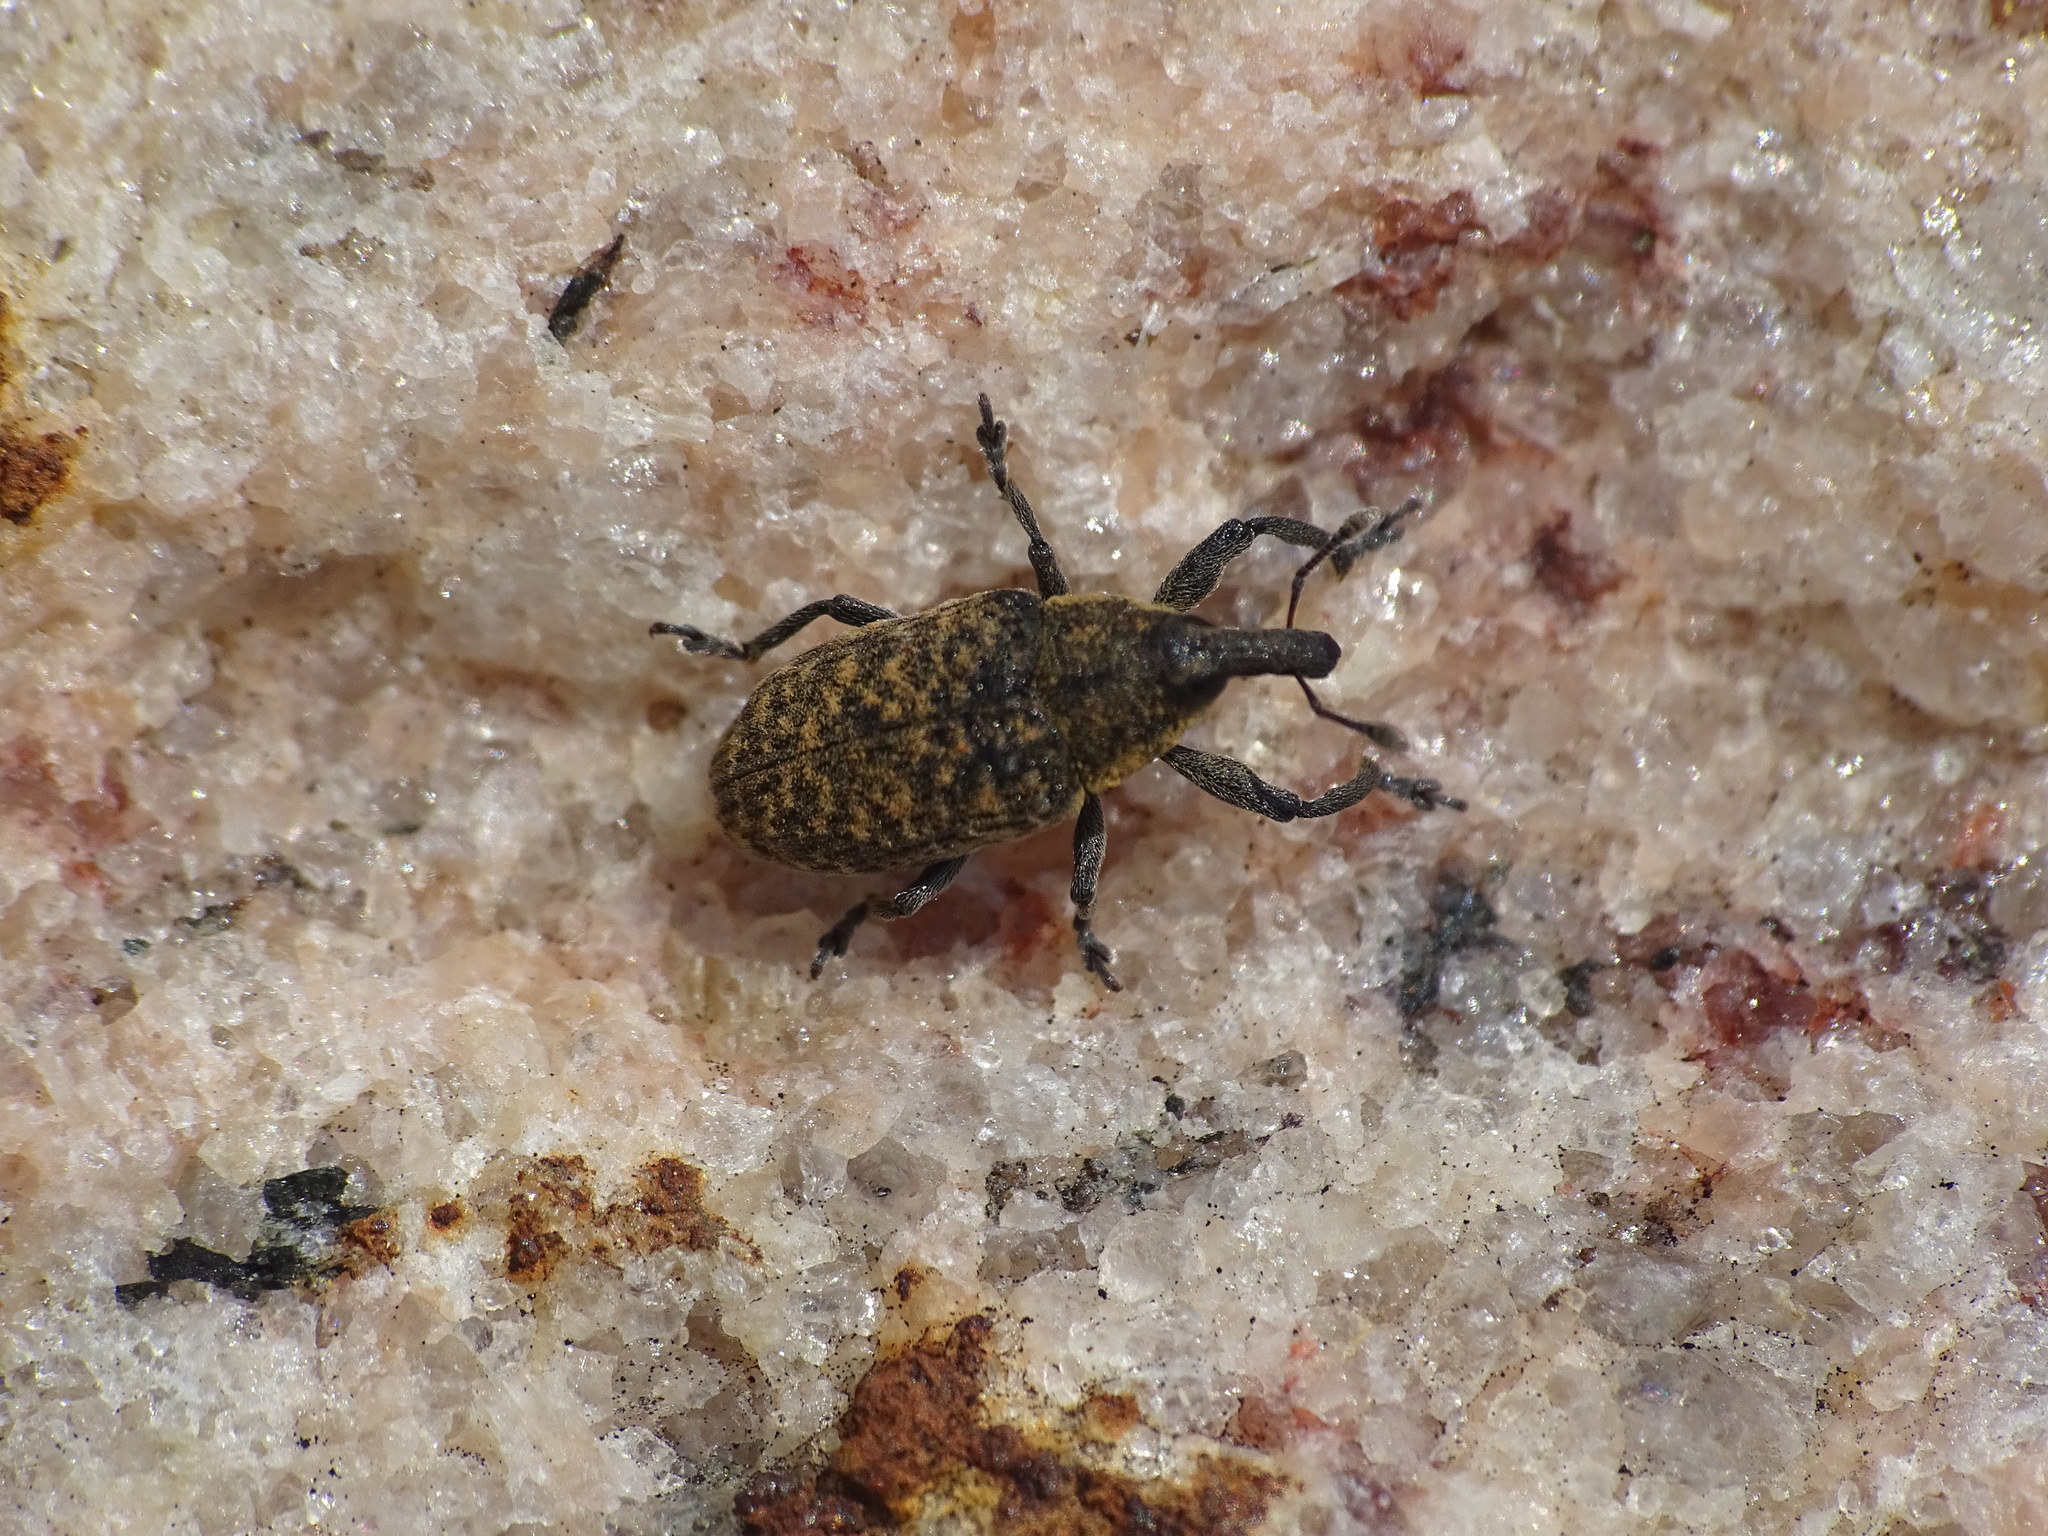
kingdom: Animalia
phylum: Arthropoda
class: Insecta
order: Coleoptera
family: Curculionidae
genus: Larinus
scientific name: Larinus carlinae
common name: Weevil
